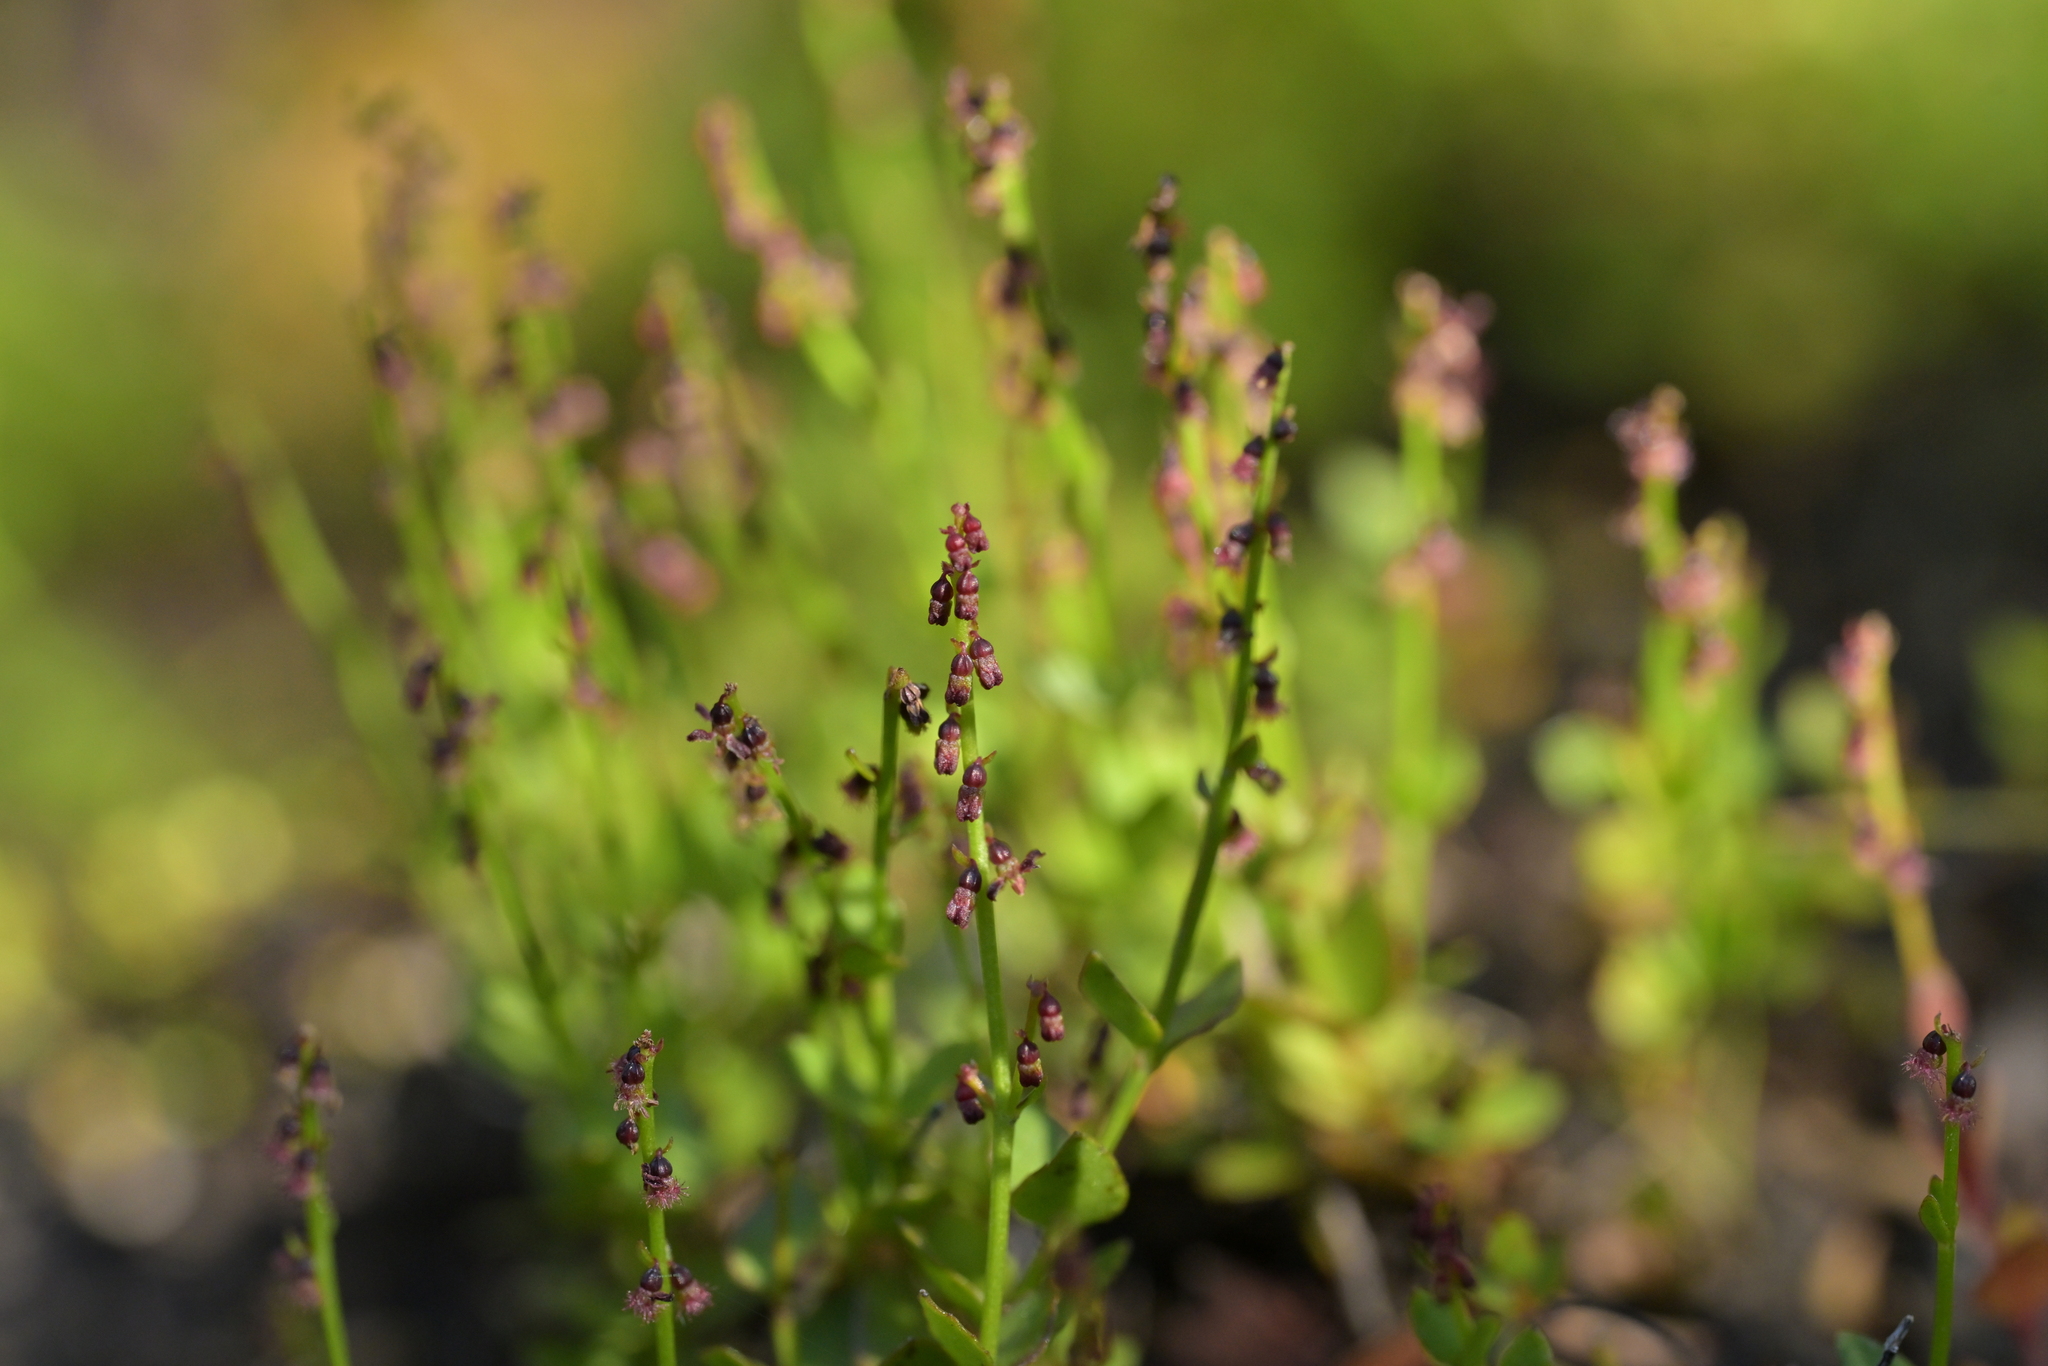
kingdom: Plantae
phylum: Tracheophyta
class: Magnoliopsida
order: Saxifragales
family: Haloragaceae
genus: Gonocarpus
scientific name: Gonocarpus micranthus
